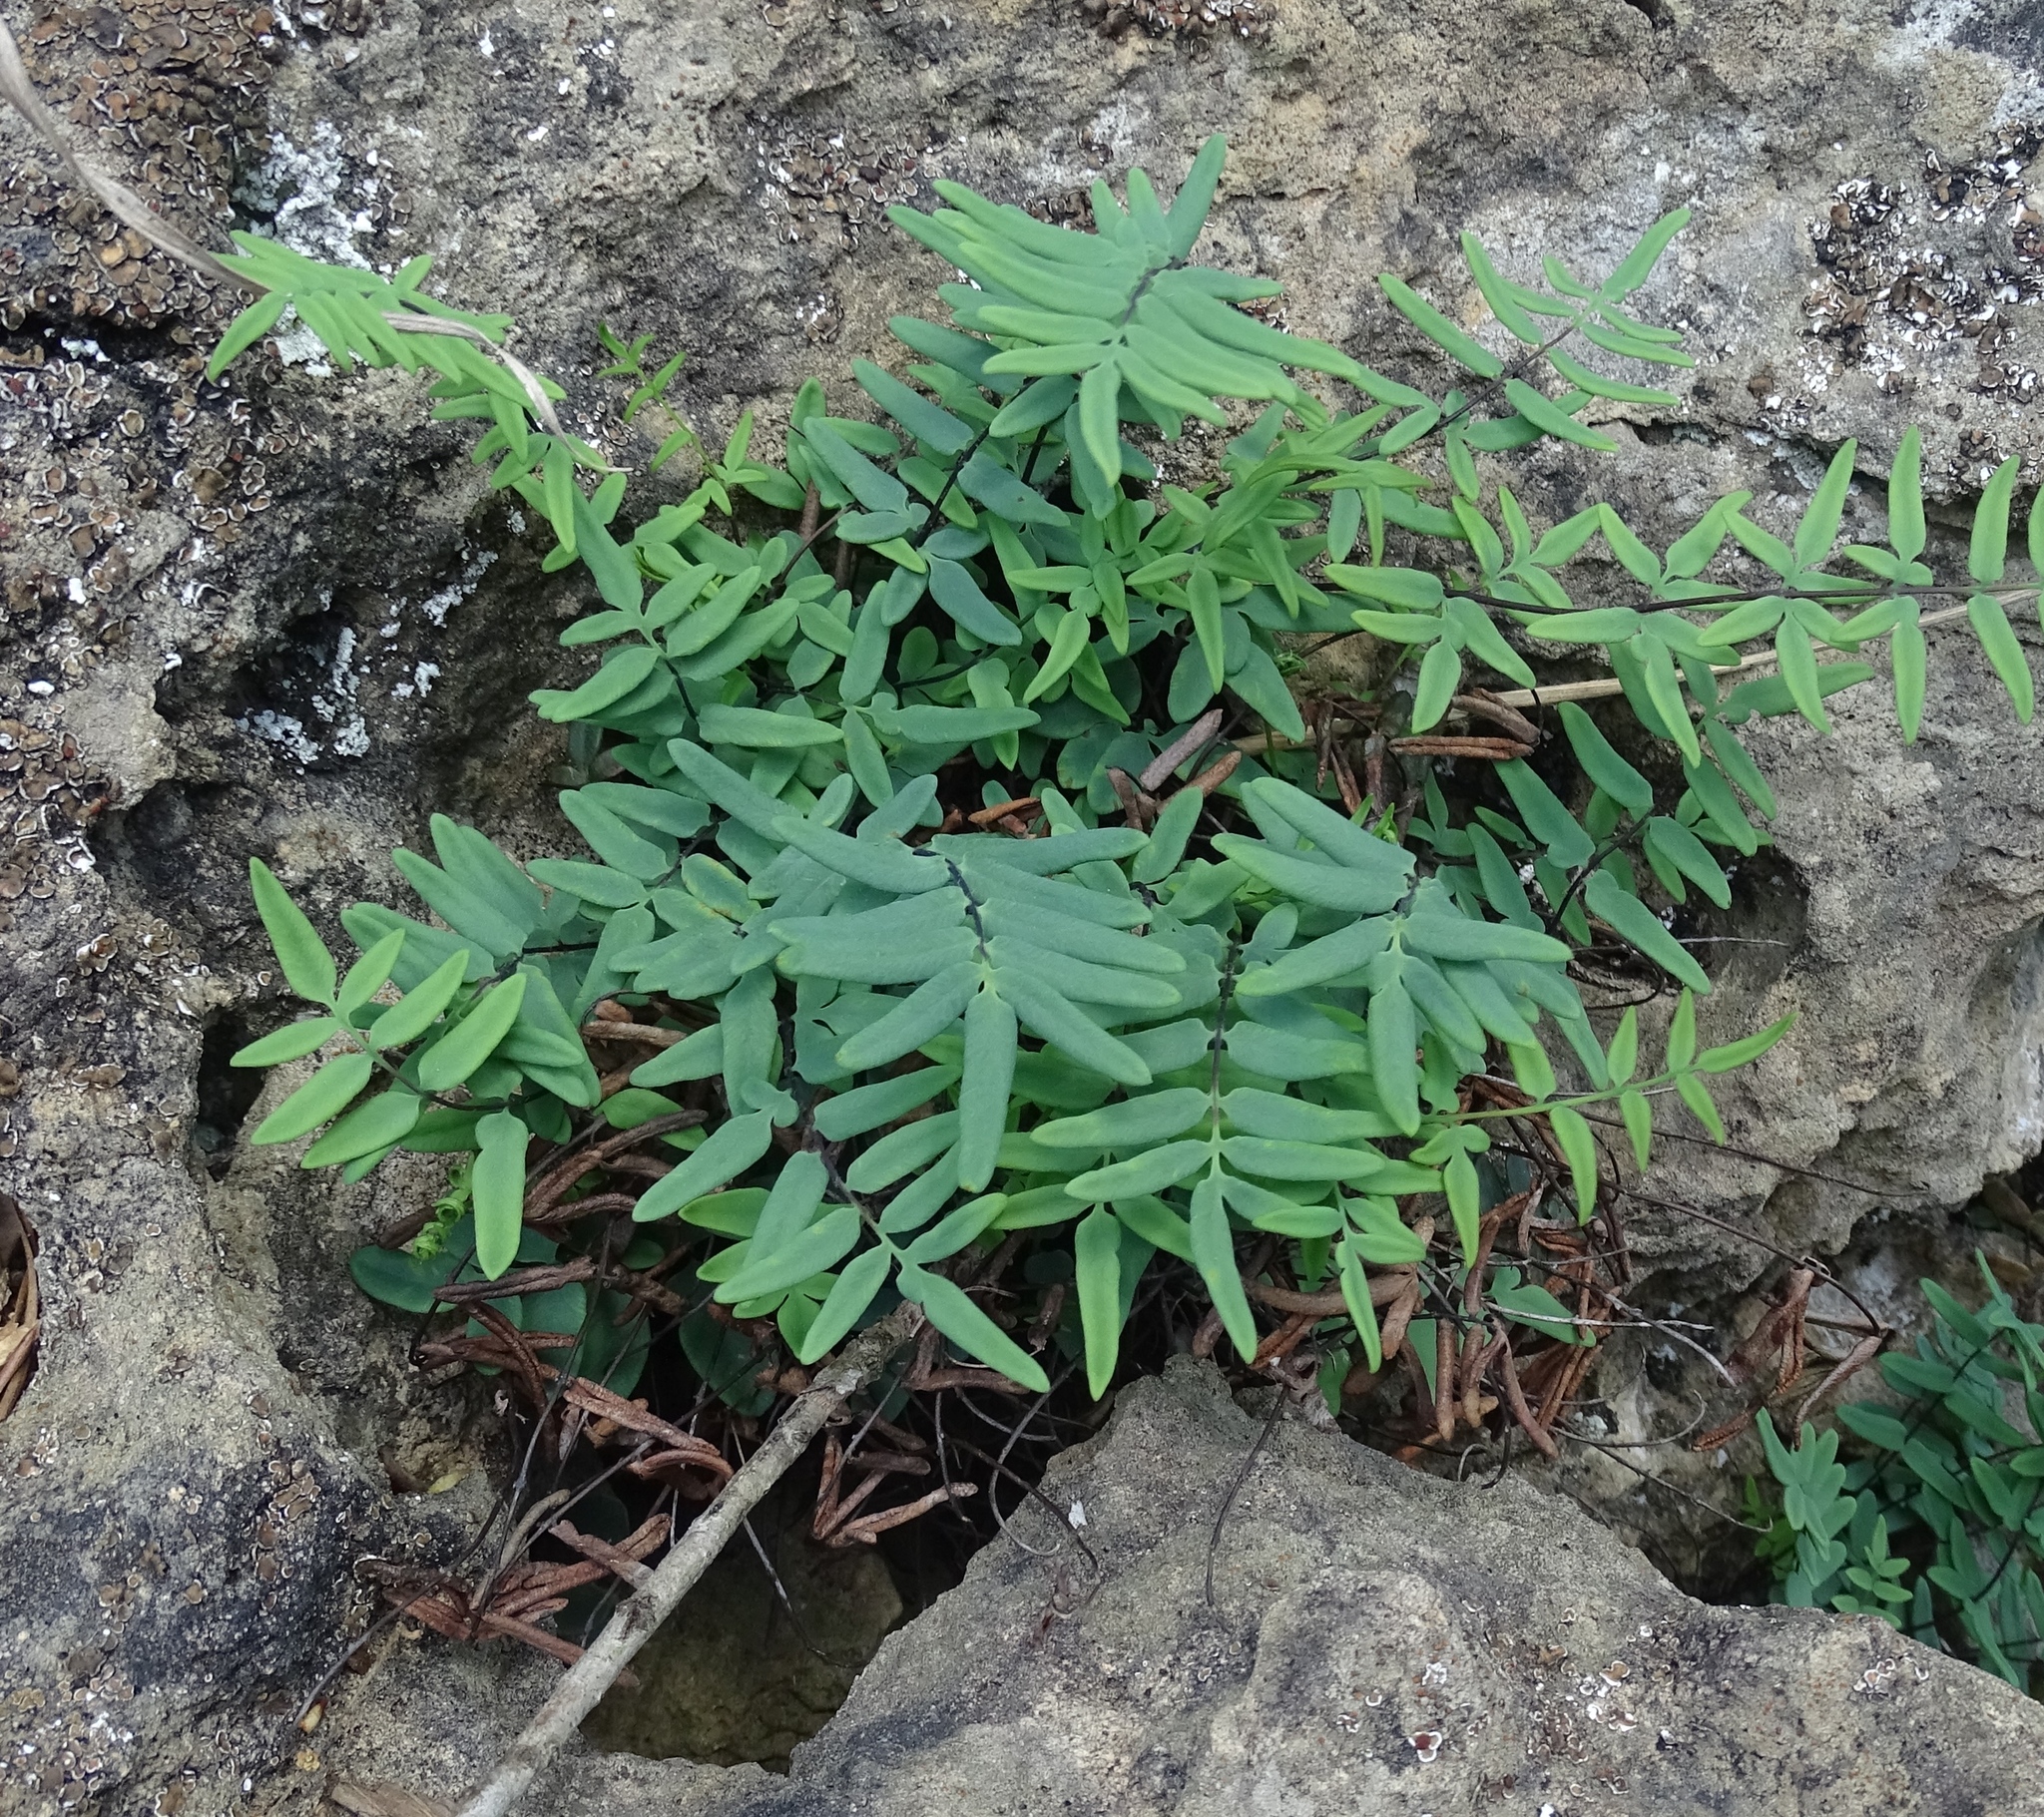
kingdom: Plantae
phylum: Tracheophyta
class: Polypodiopsida
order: Polypodiales
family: Pteridaceae
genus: Pellaea
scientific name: Pellaea glabella
